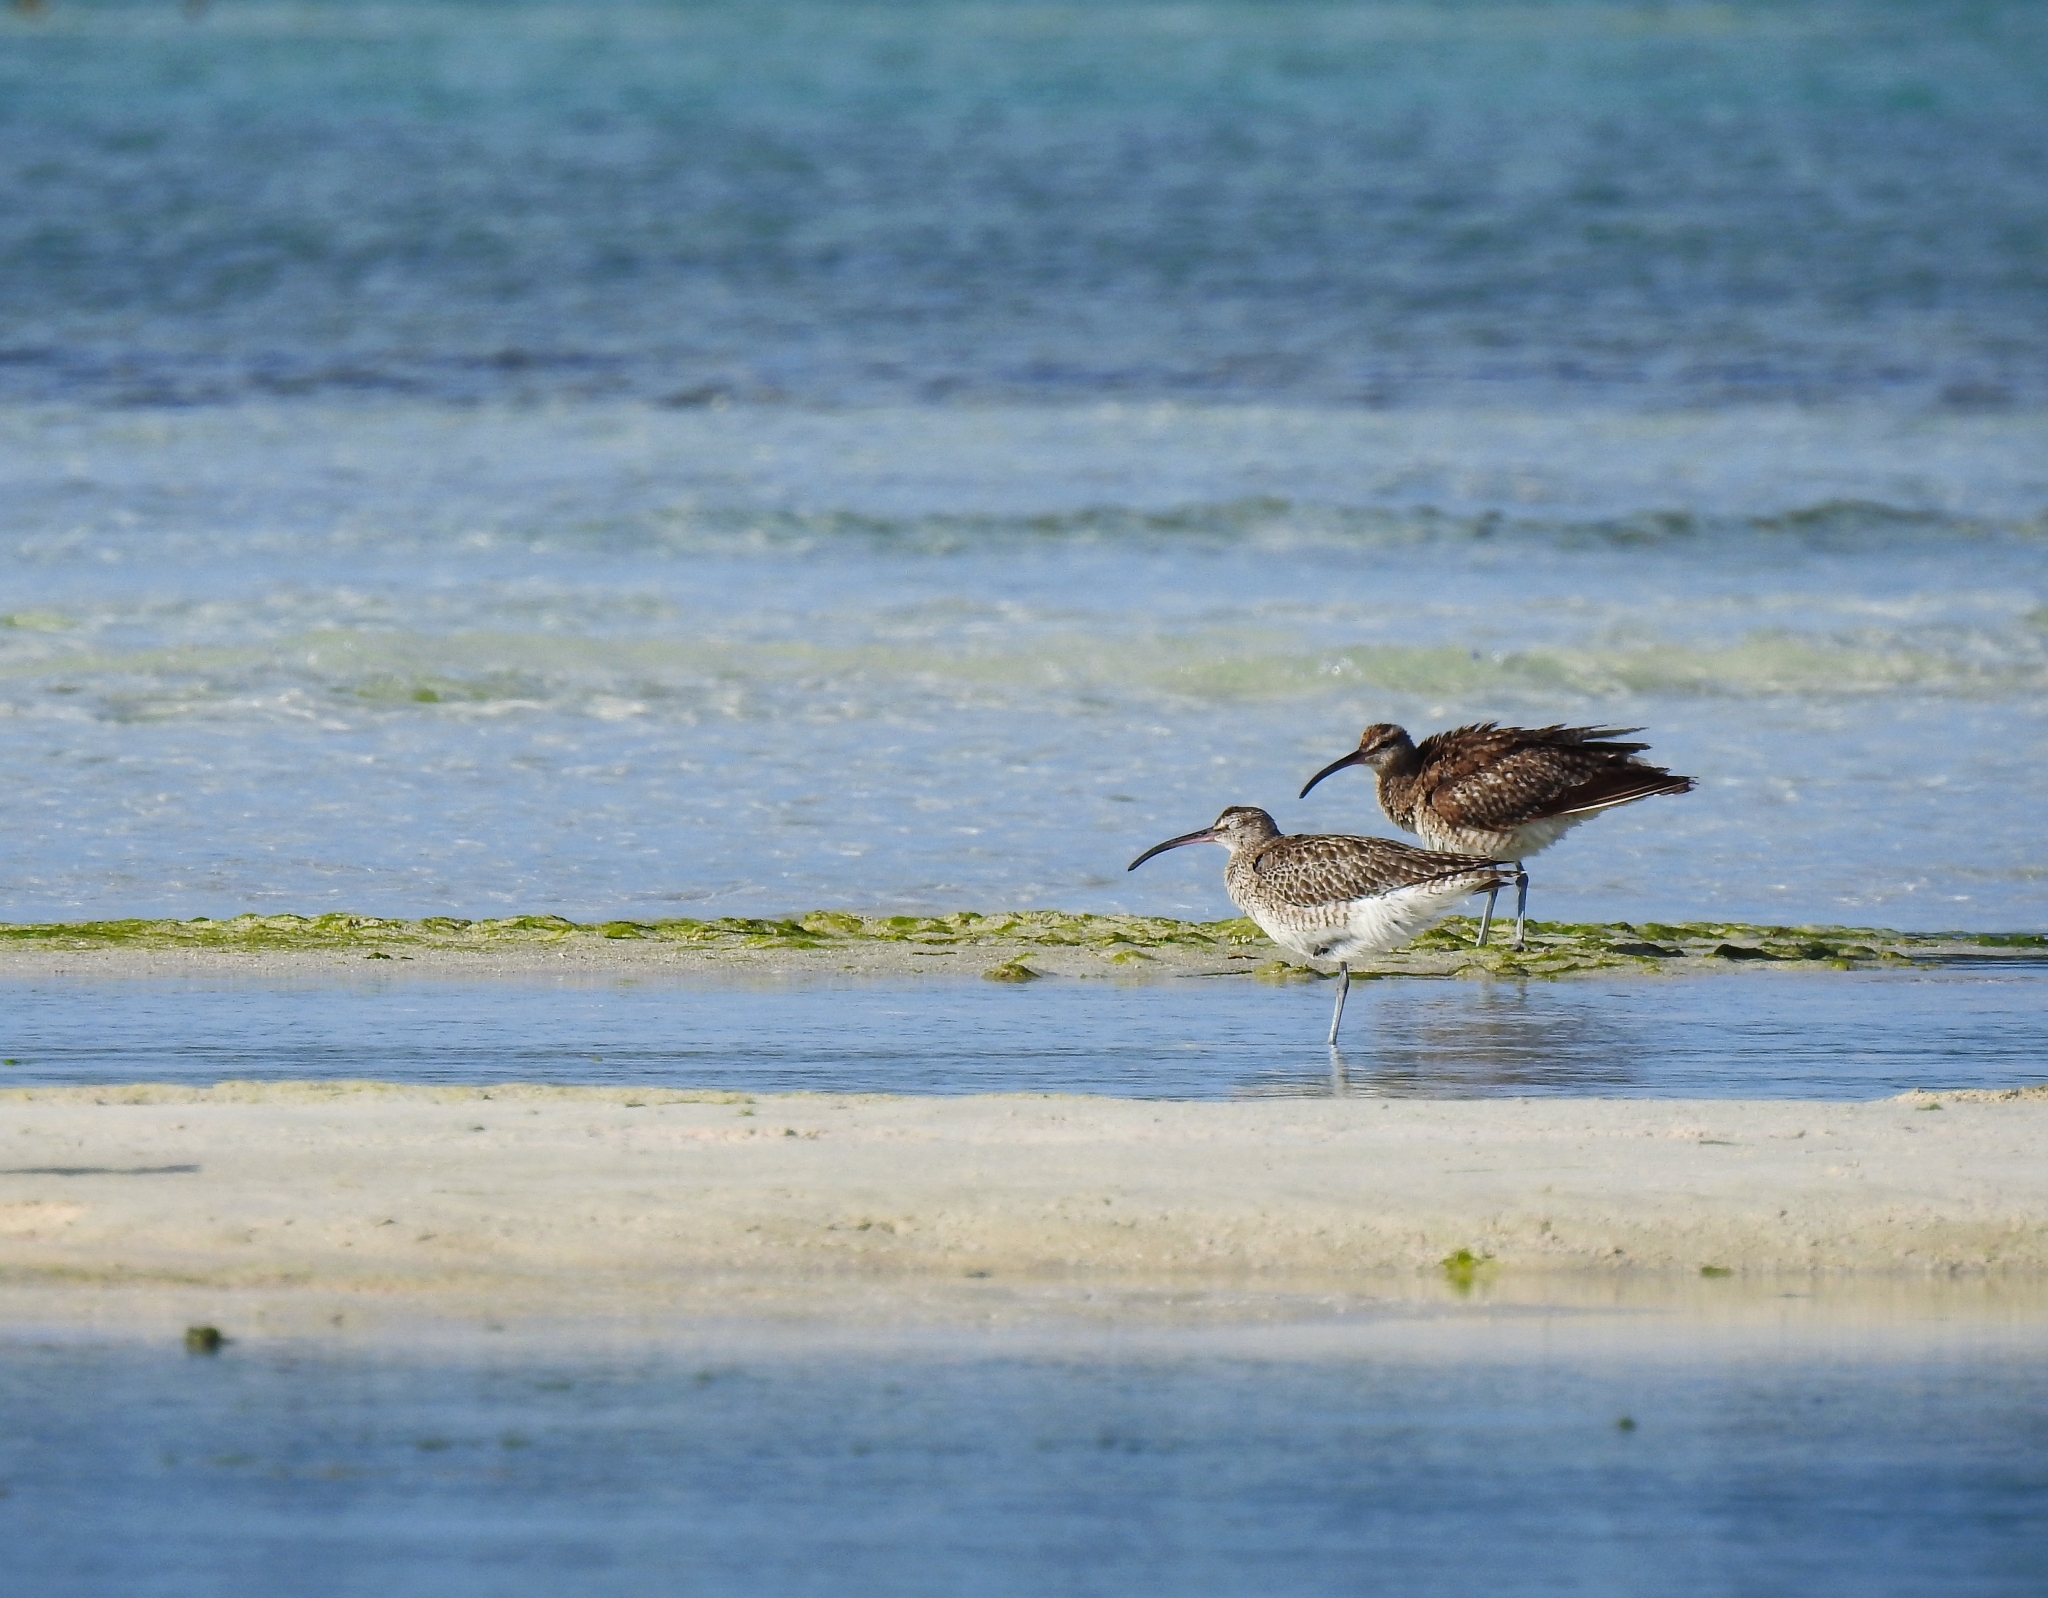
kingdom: Animalia
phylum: Chordata
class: Aves
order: Charadriiformes
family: Scolopacidae
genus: Numenius
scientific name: Numenius phaeopus
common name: Whimbrel
